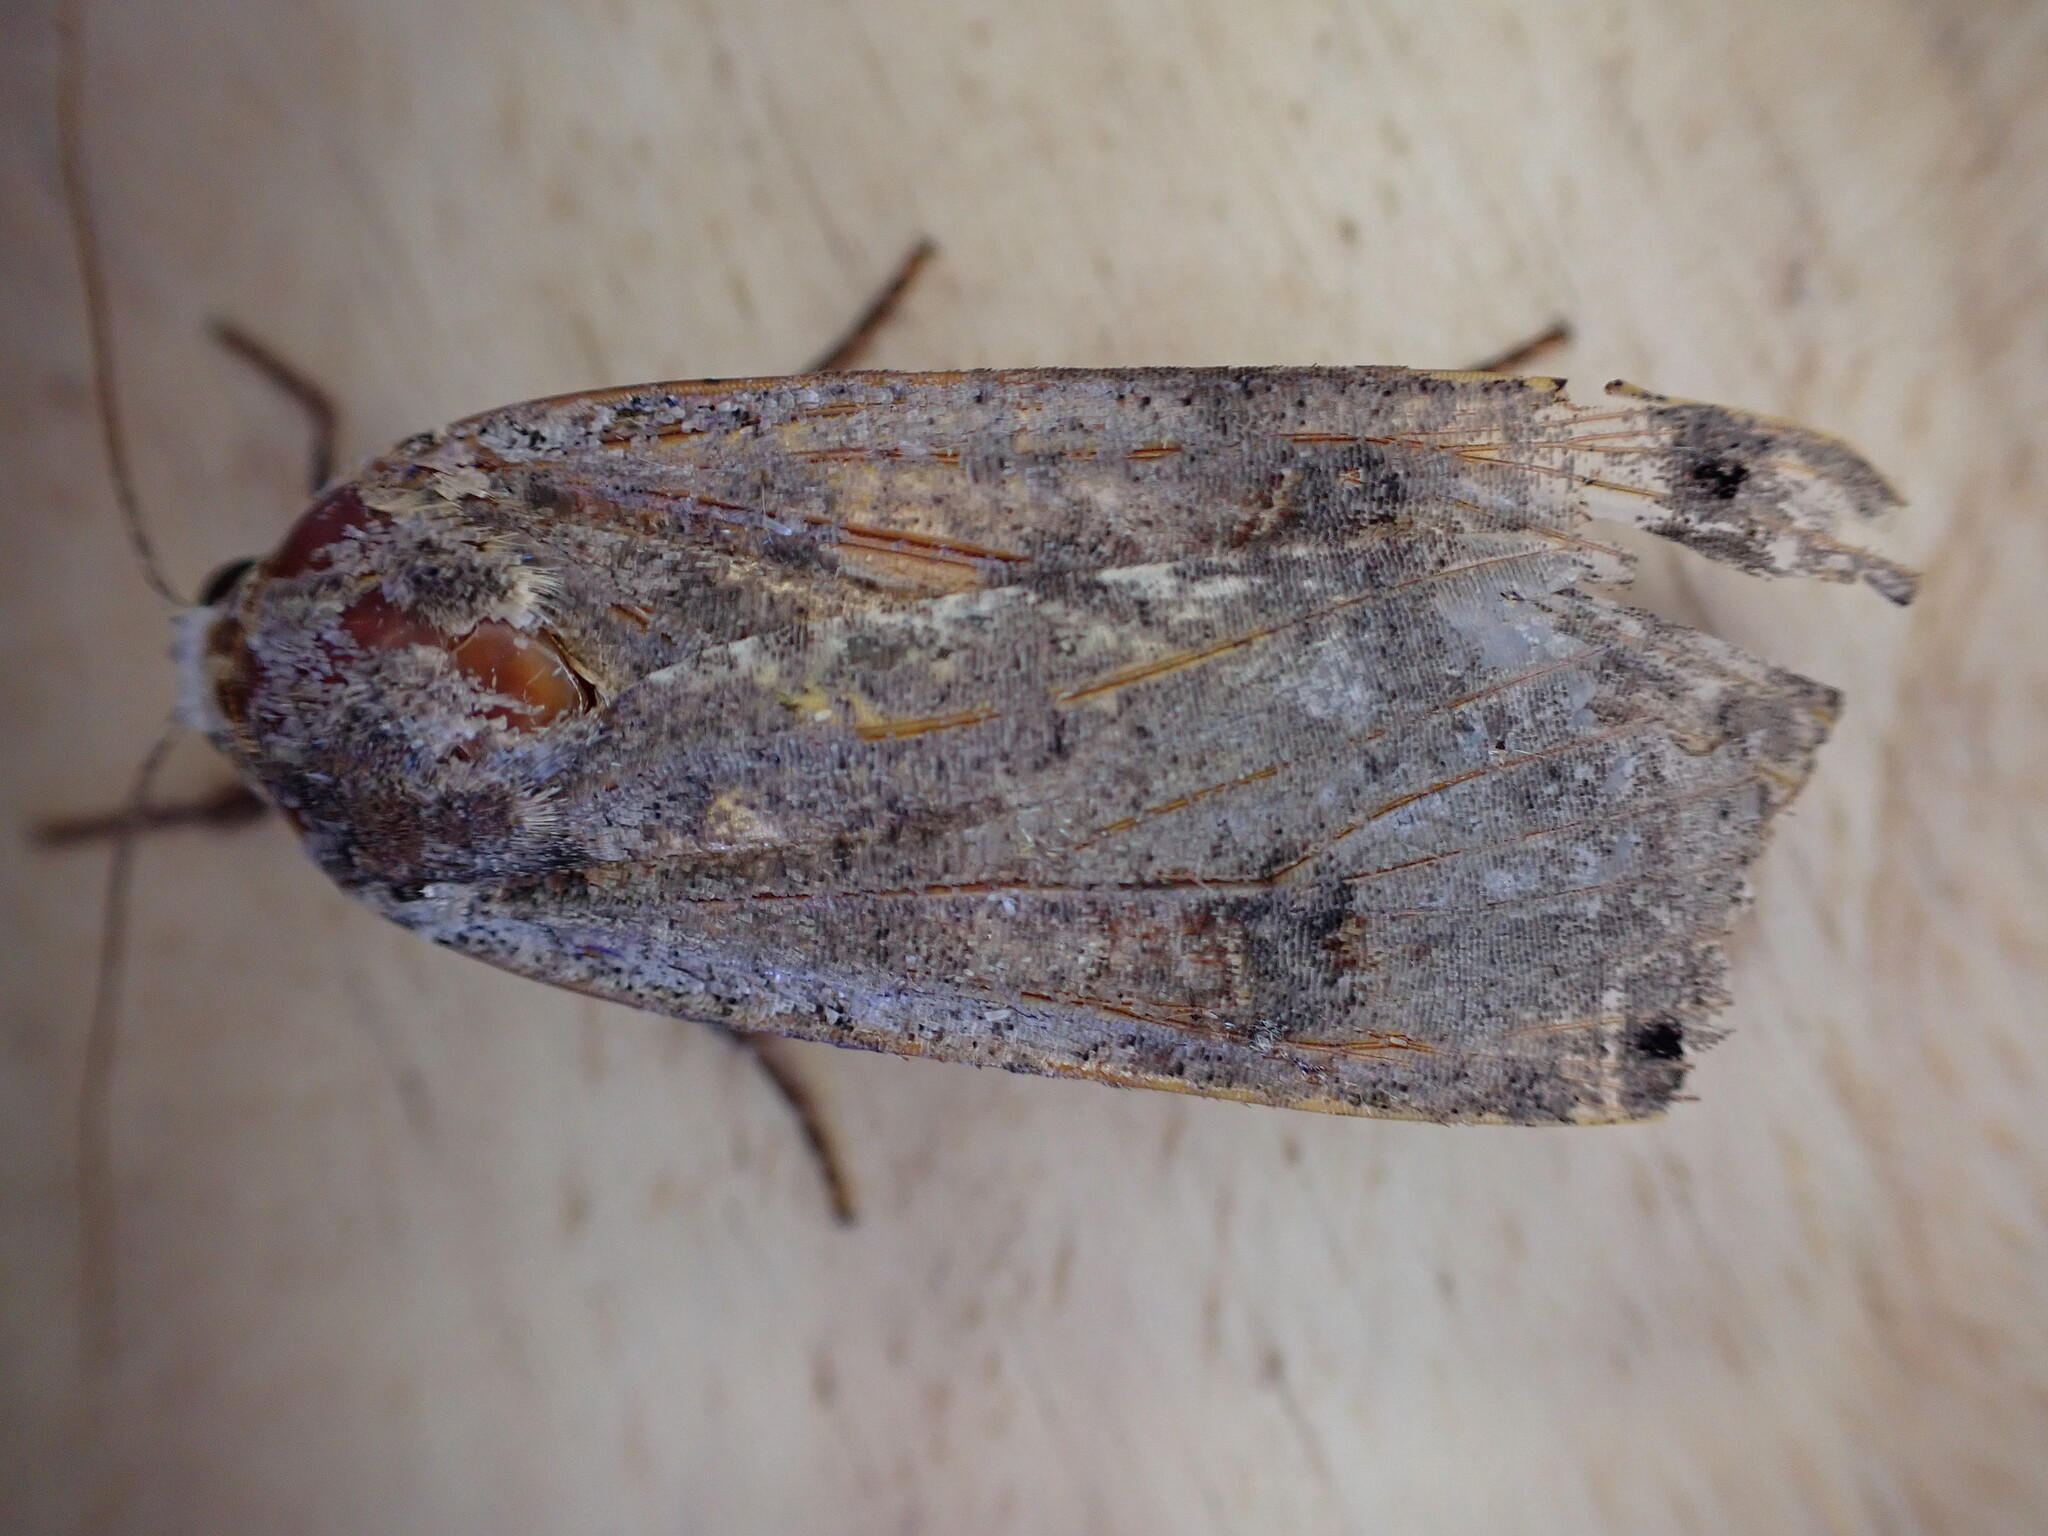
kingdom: Animalia
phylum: Arthropoda
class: Insecta
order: Lepidoptera
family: Noctuidae
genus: Noctua
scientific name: Noctua pronuba
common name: Large yellow underwing
